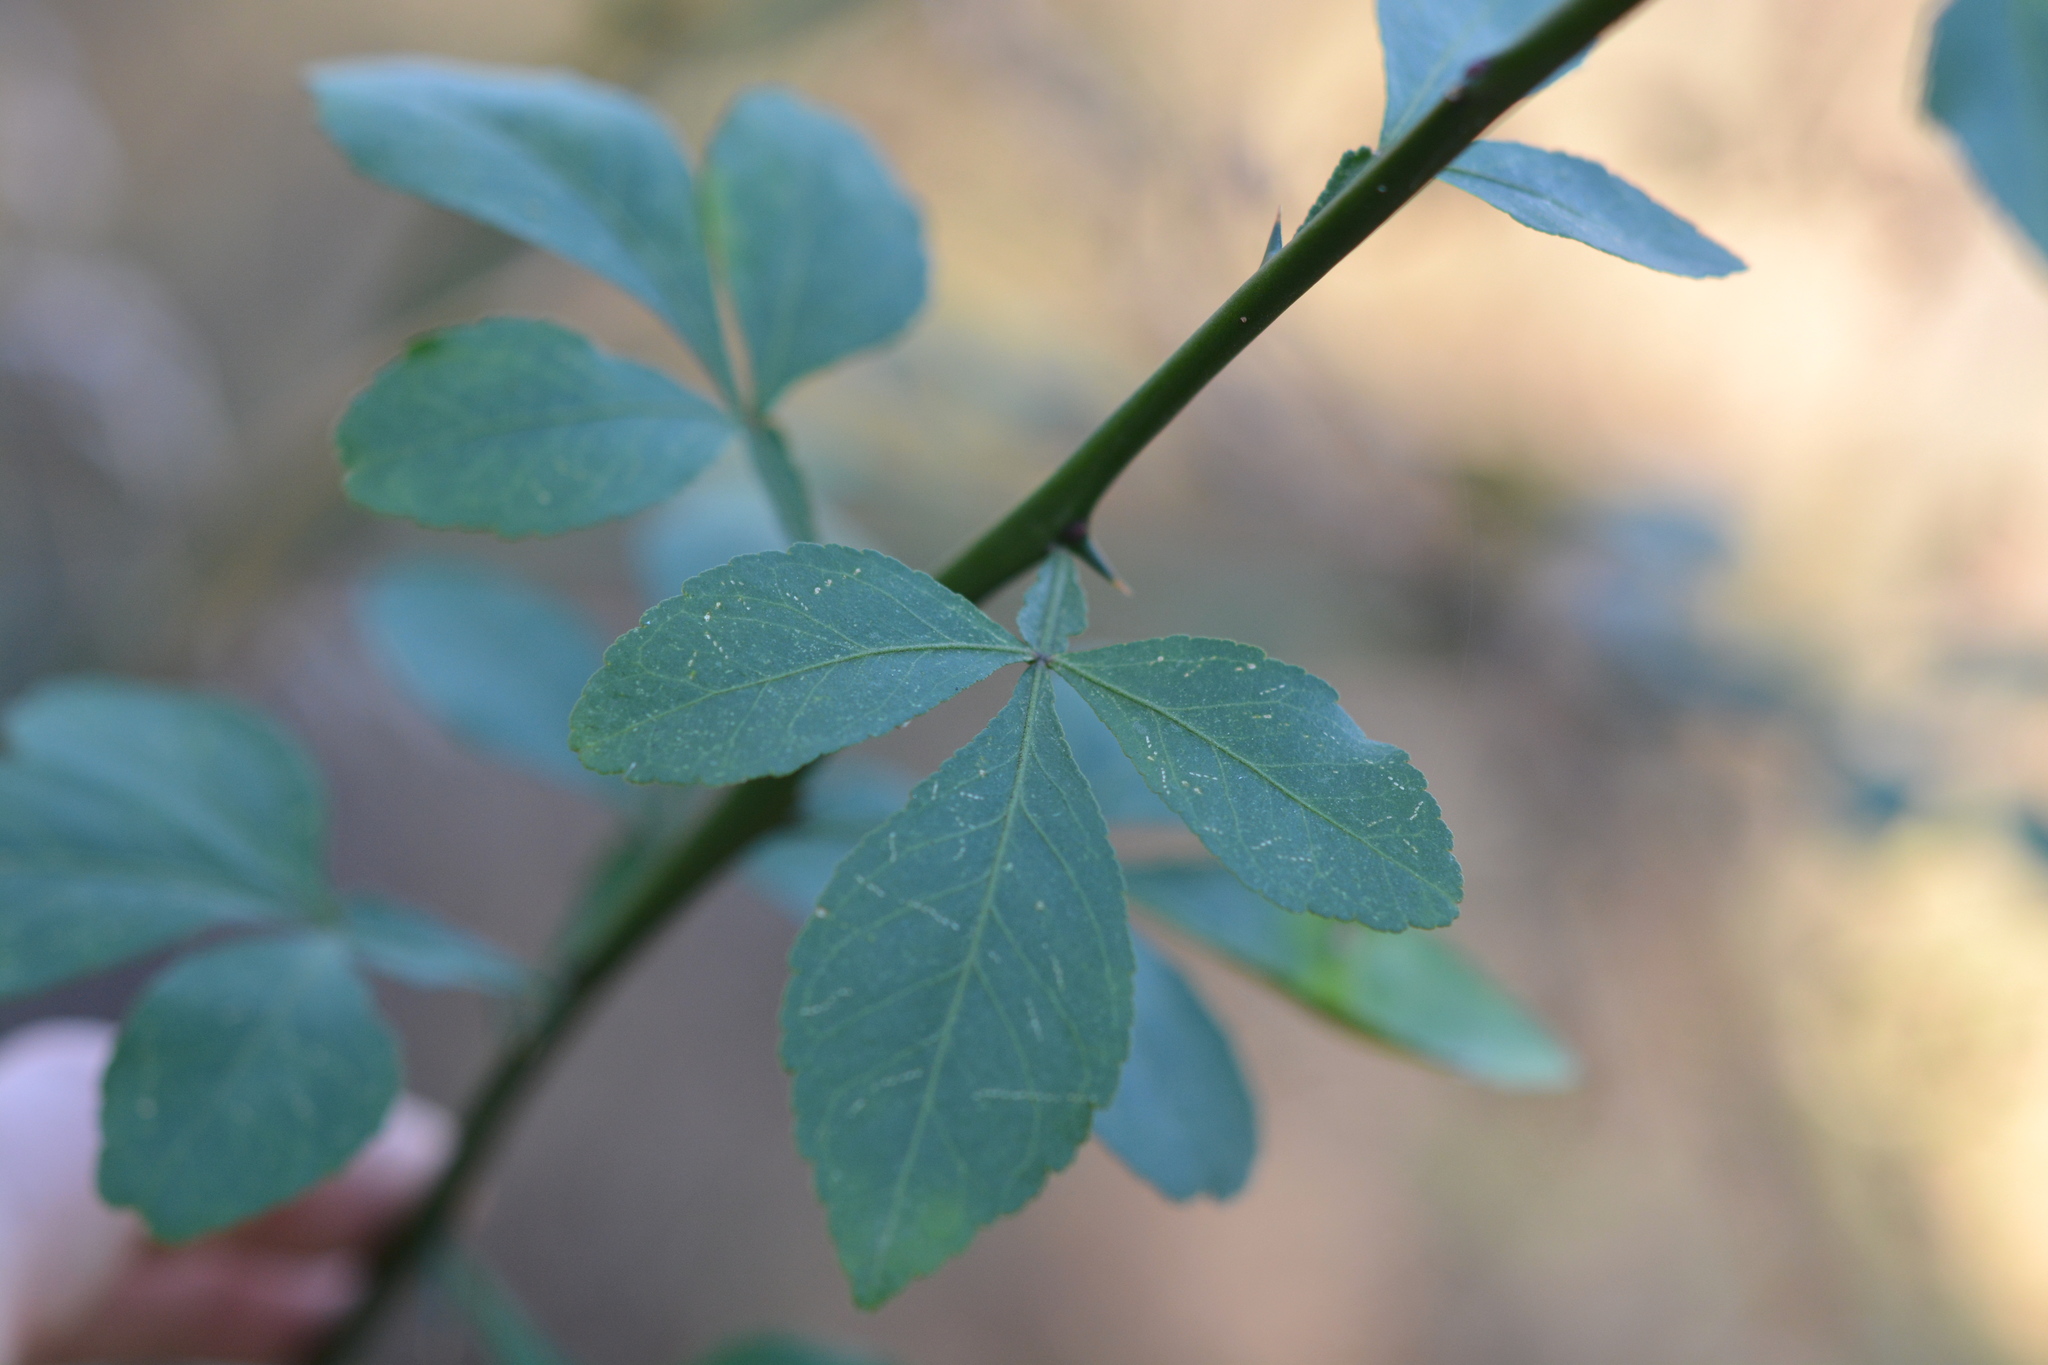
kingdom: Plantae
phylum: Tracheophyta
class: Magnoliopsida
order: Sapindales
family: Rutaceae
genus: Citrus
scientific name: Citrus trifoliata
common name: Japanese bitter-orange
